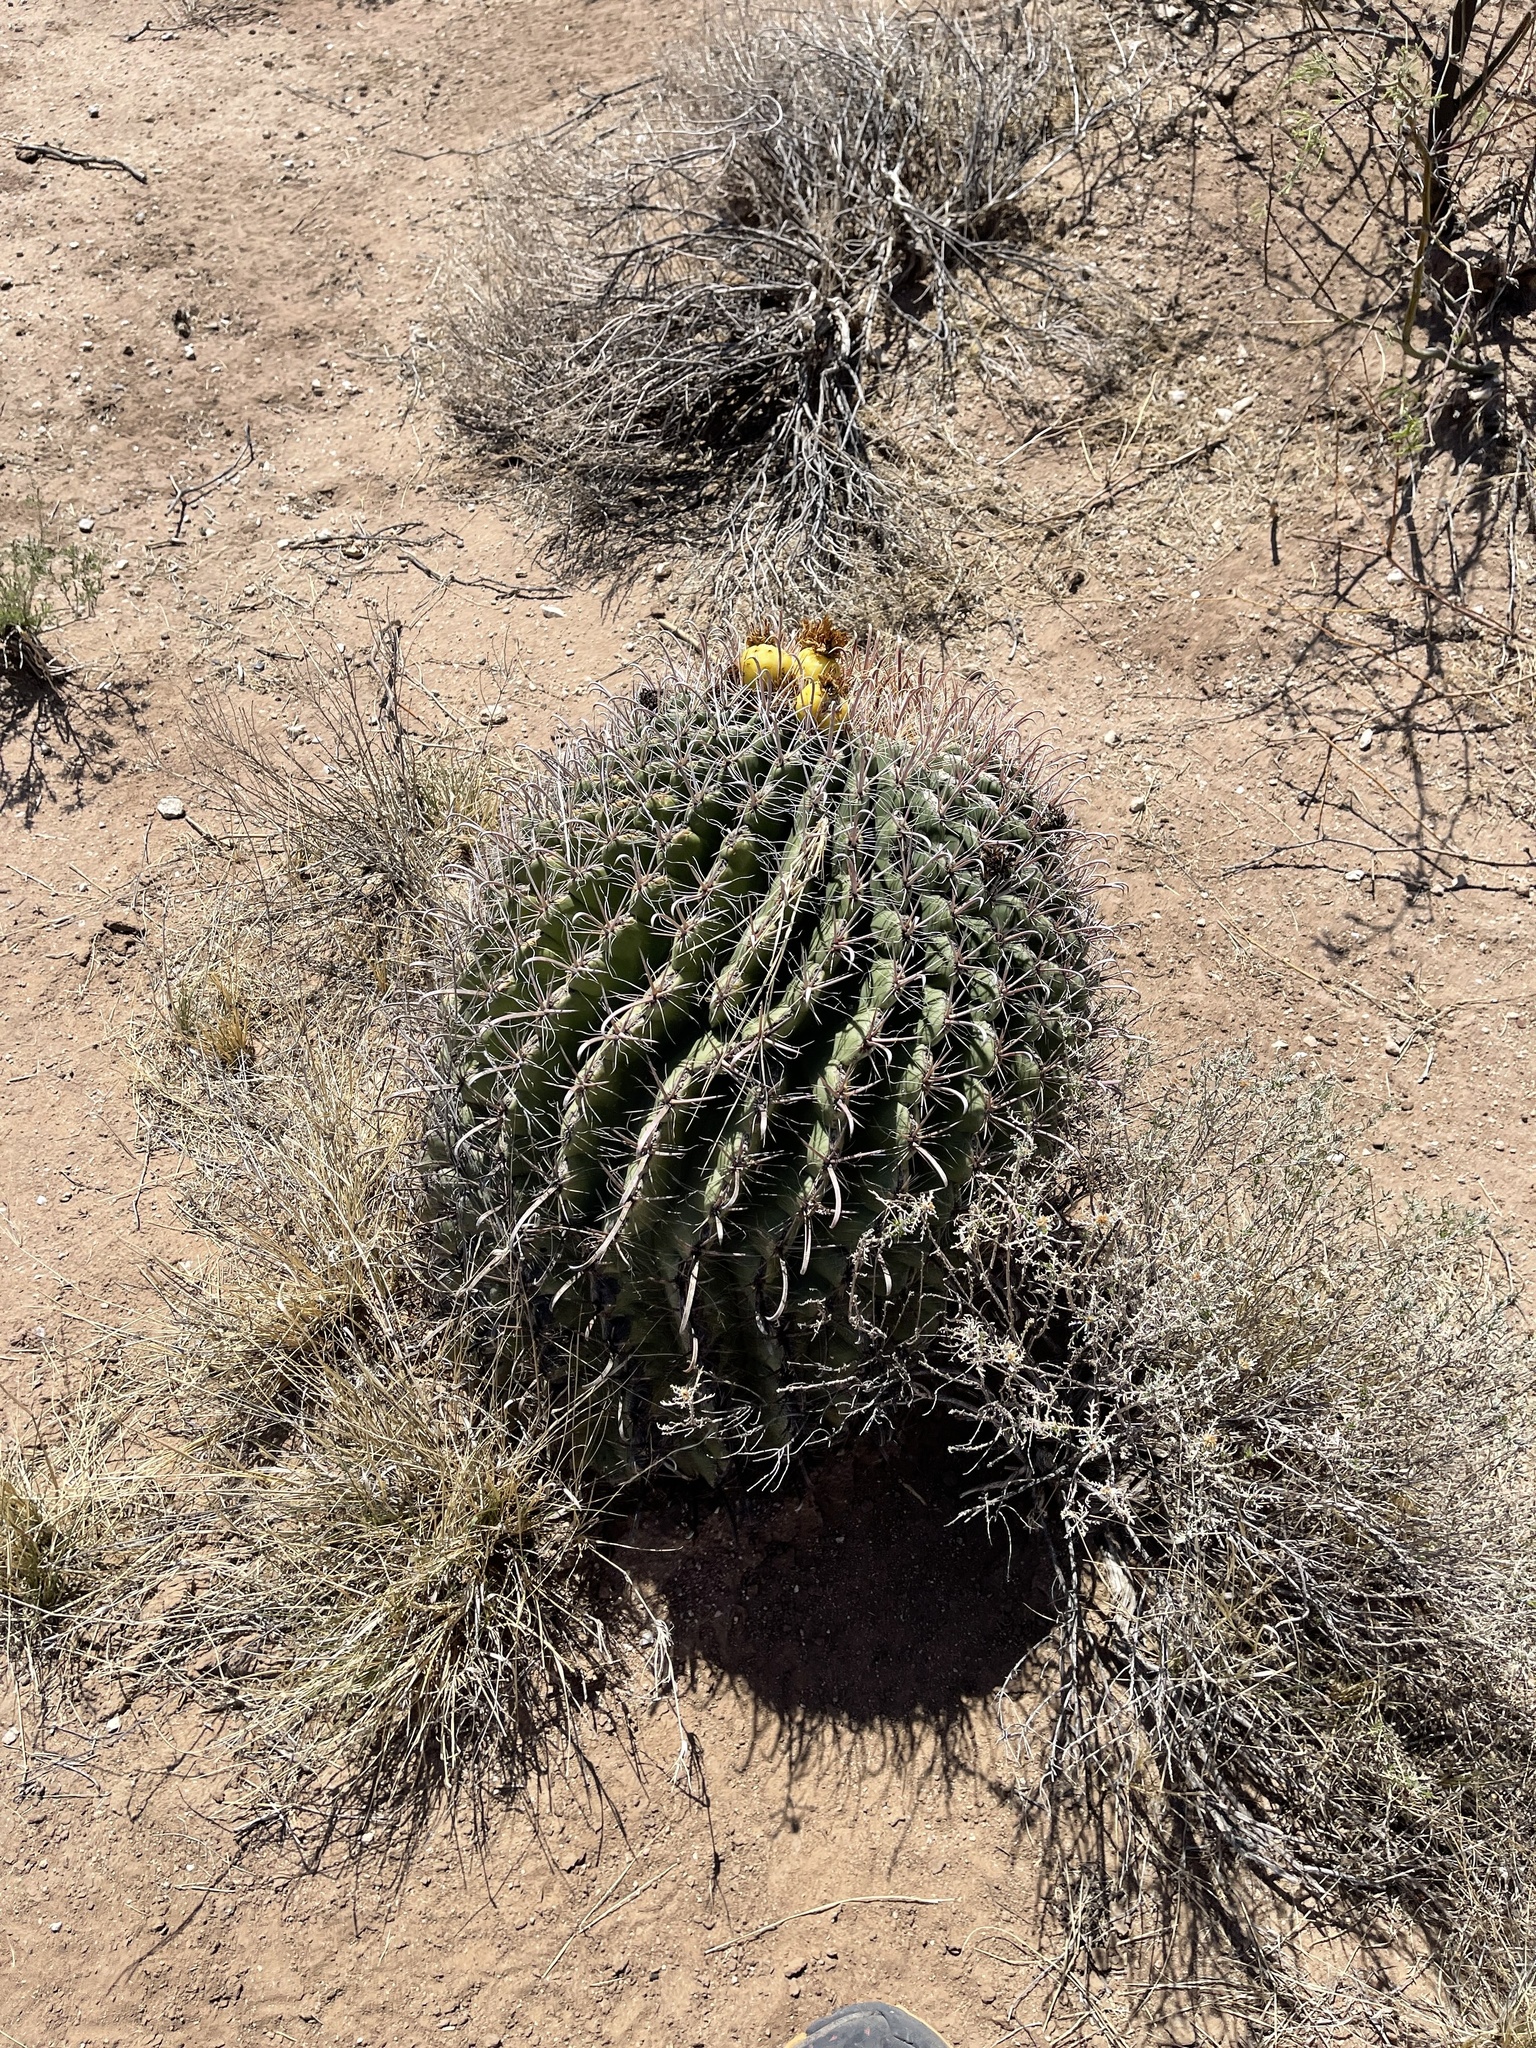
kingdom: Plantae
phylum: Tracheophyta
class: Magnoliopsida
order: Caryophyllales
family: Cactaceae
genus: Ferocactus
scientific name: Ferocactus wislizeni
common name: Candy barrel cactus
